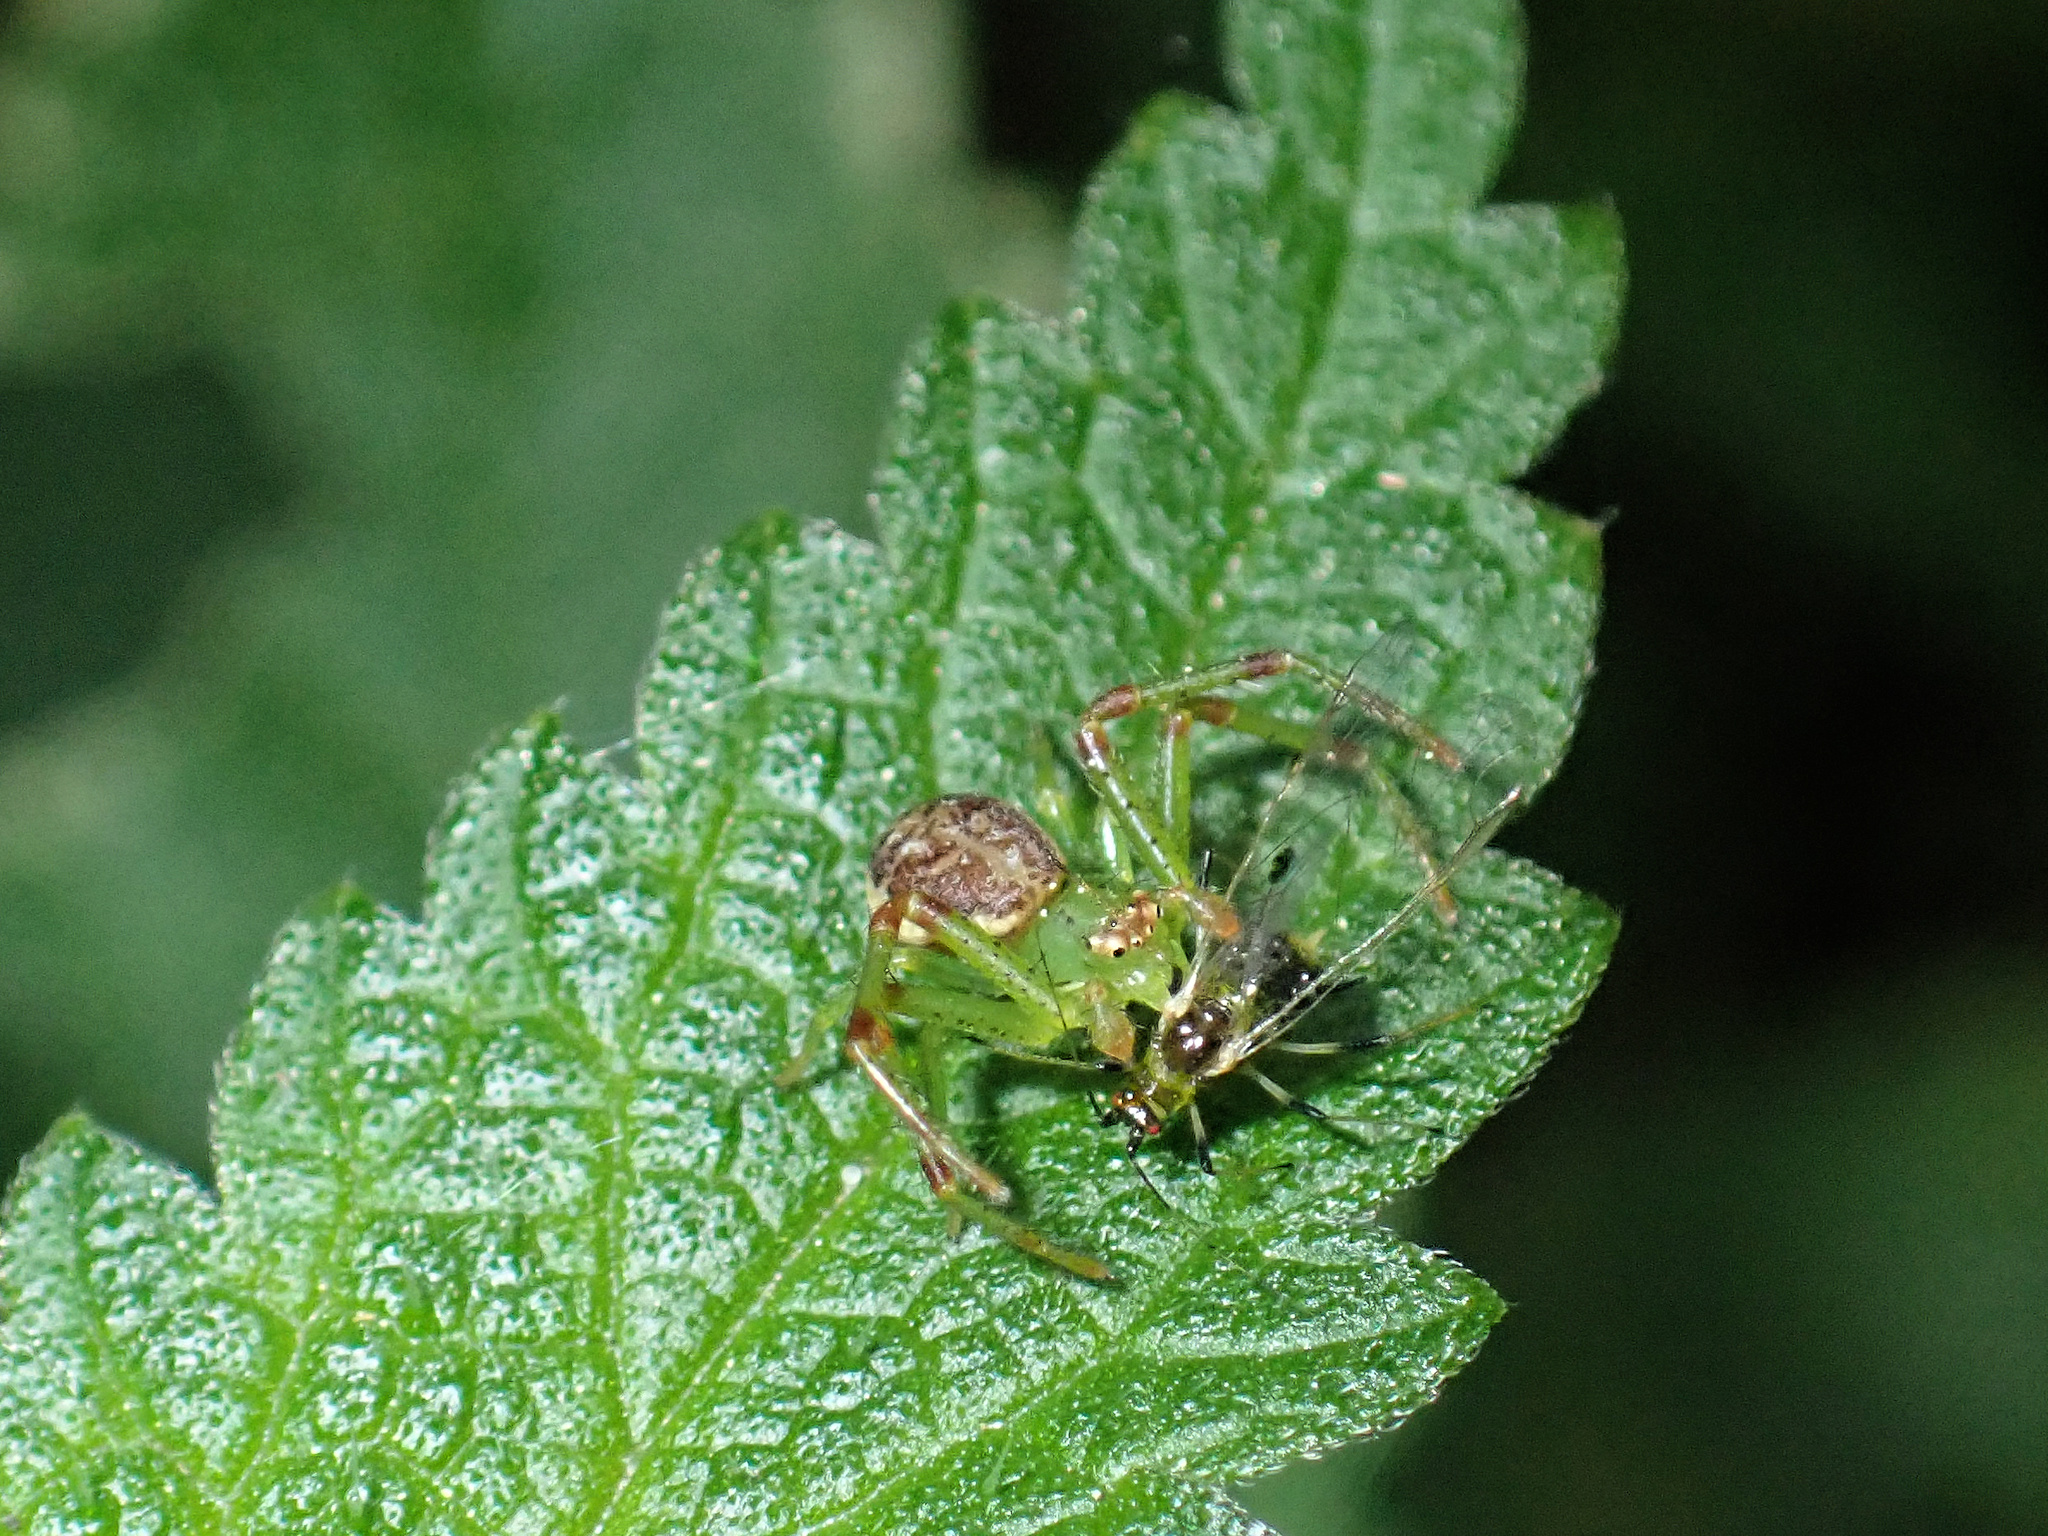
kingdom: Animalia
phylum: Arthropoda
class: Arachnida
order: Araneae
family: Thomisidae
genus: Diaea
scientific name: Diaea dorsata
